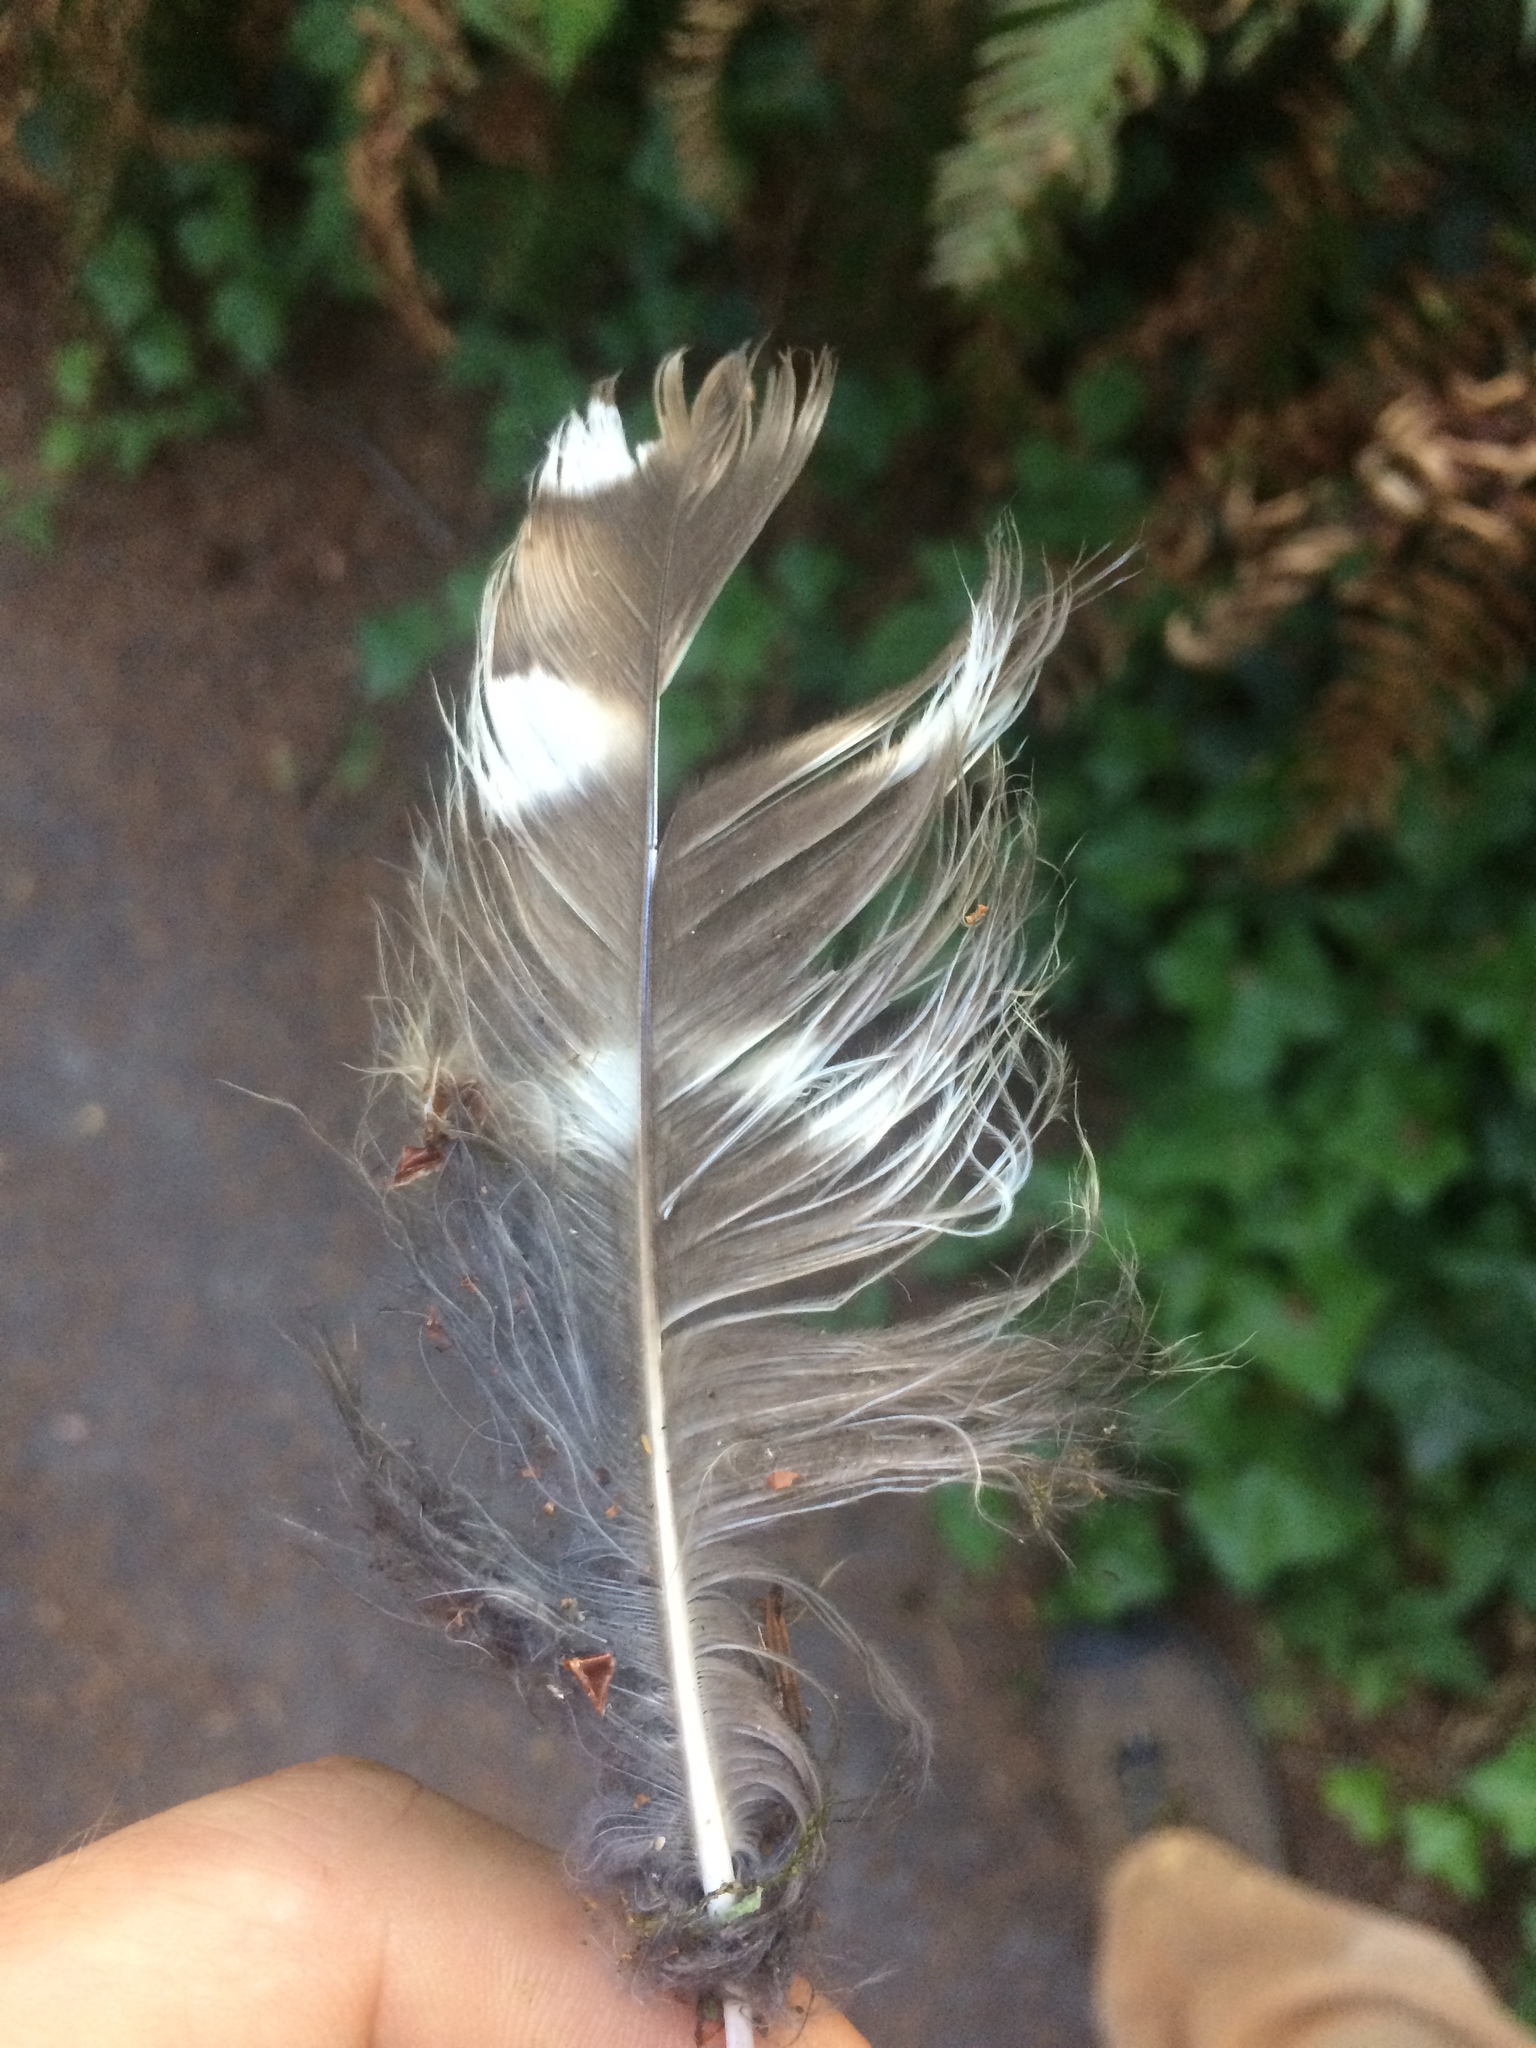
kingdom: Animalia
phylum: Chordata
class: Aves
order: Strigiformes
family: Strigidae
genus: Strix
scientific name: Strix varia
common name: Barred owl
